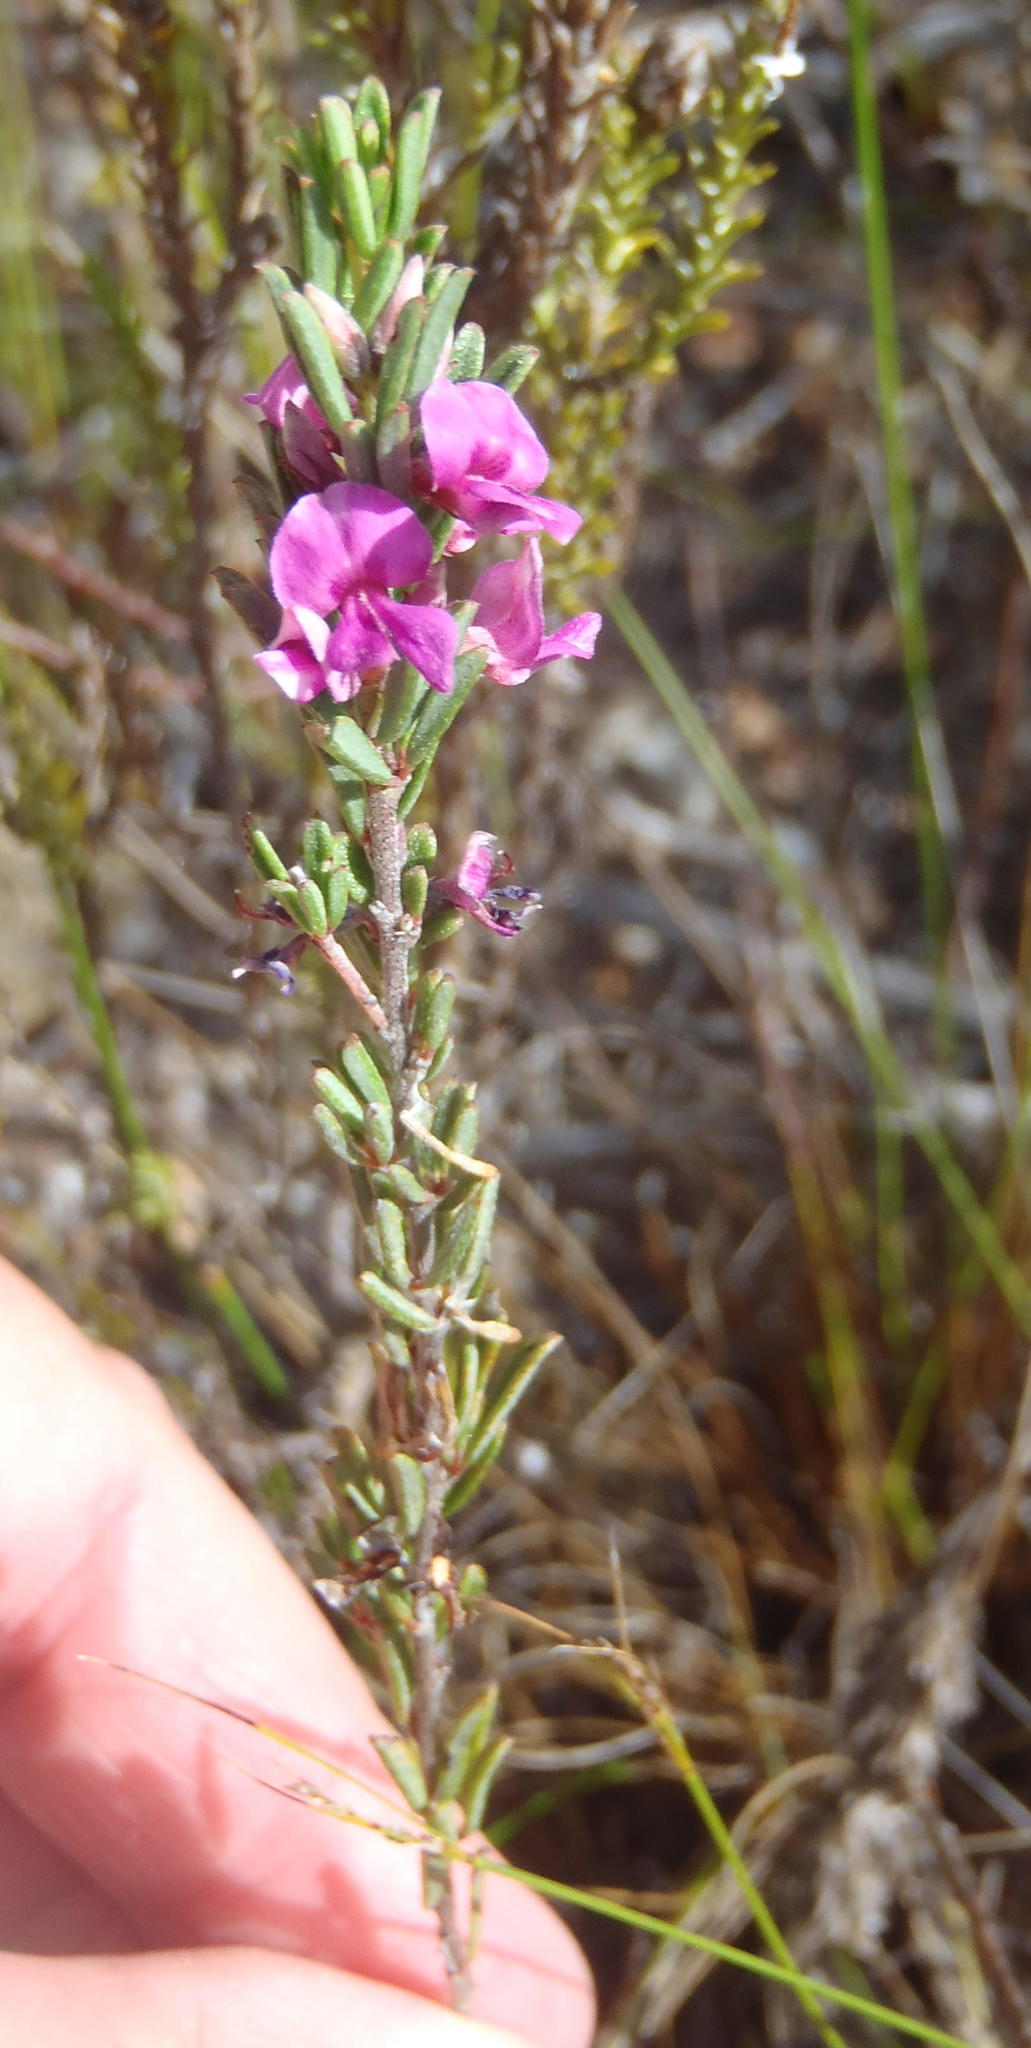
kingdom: Plantae
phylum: Tracheophyta
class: Magnoliopsida
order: Fabales
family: Fabaceae
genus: Indigofera
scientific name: Indigofera pappei
